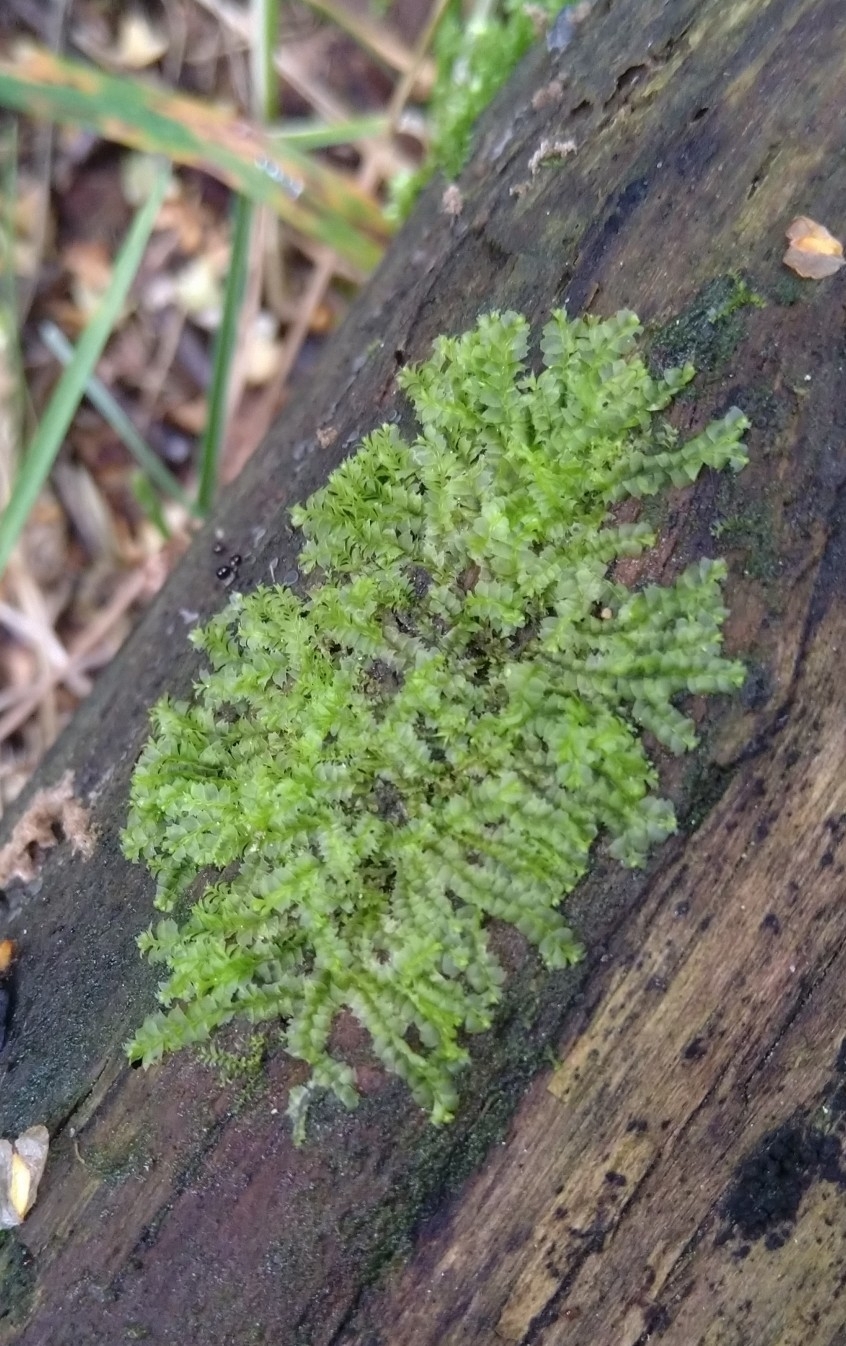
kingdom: Plantae
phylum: Marchantiophyta
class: Jungermanniopsida
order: Jungermanniales
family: Lophocoleaceae
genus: Lophocolea
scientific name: Lophocolea heterophylla
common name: Variable-leaved crestwort
